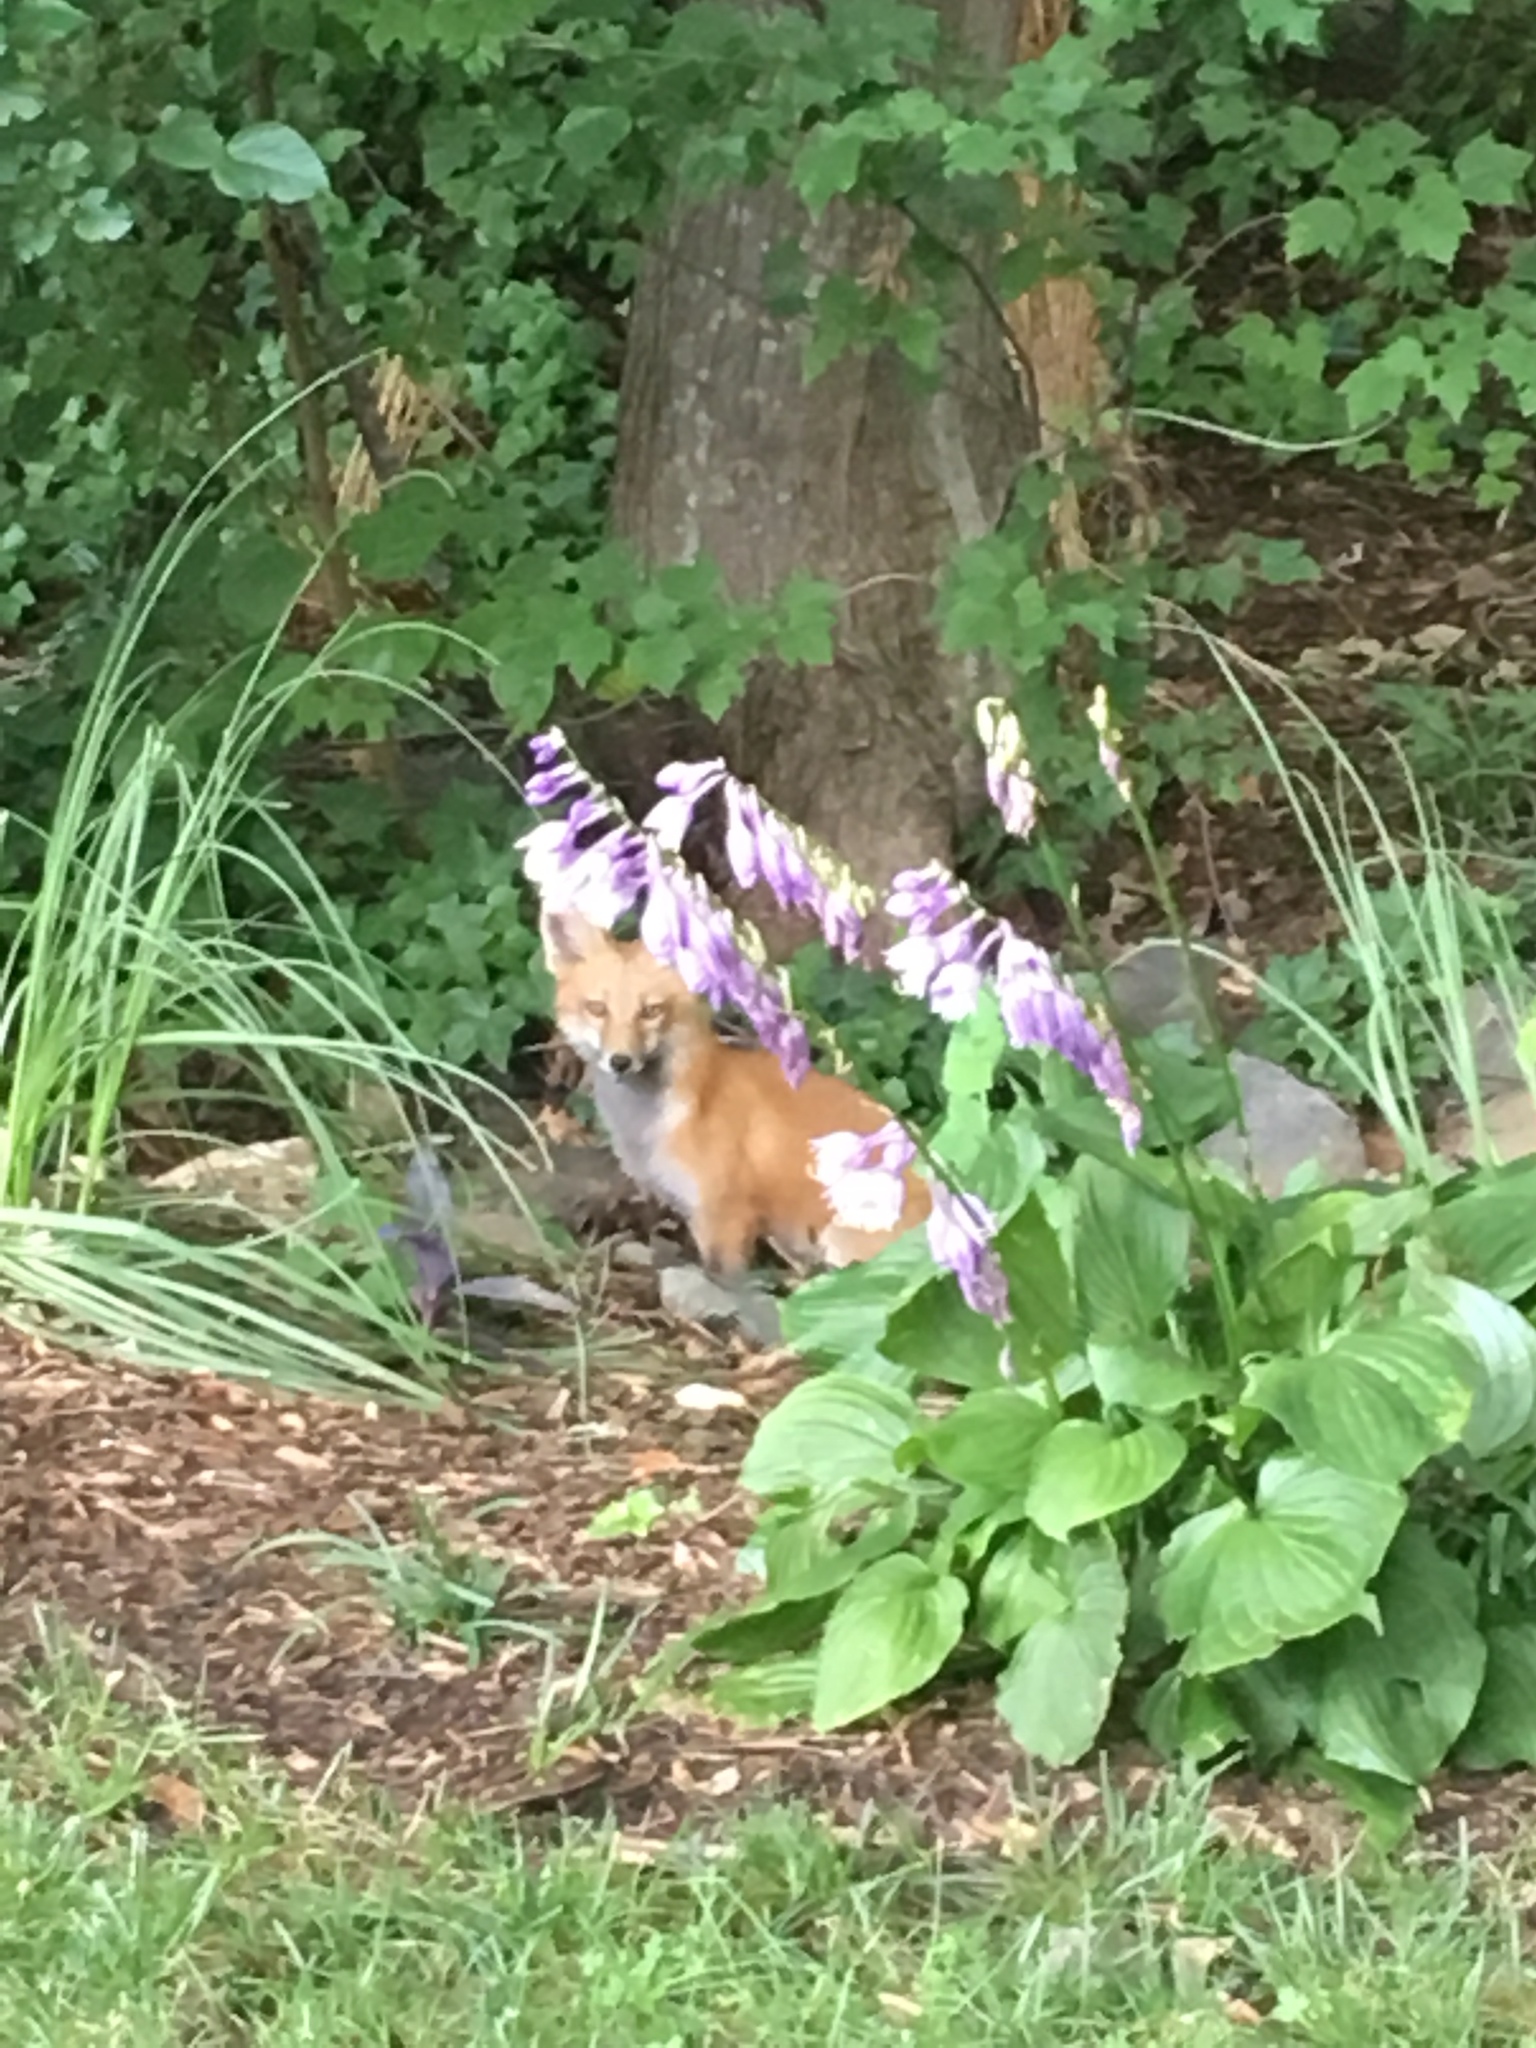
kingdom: Animalia
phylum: Chordata
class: Mammalia
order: Carnivora
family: Canidae
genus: Vulpes
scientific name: Vulpes vulpes
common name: Red fox
